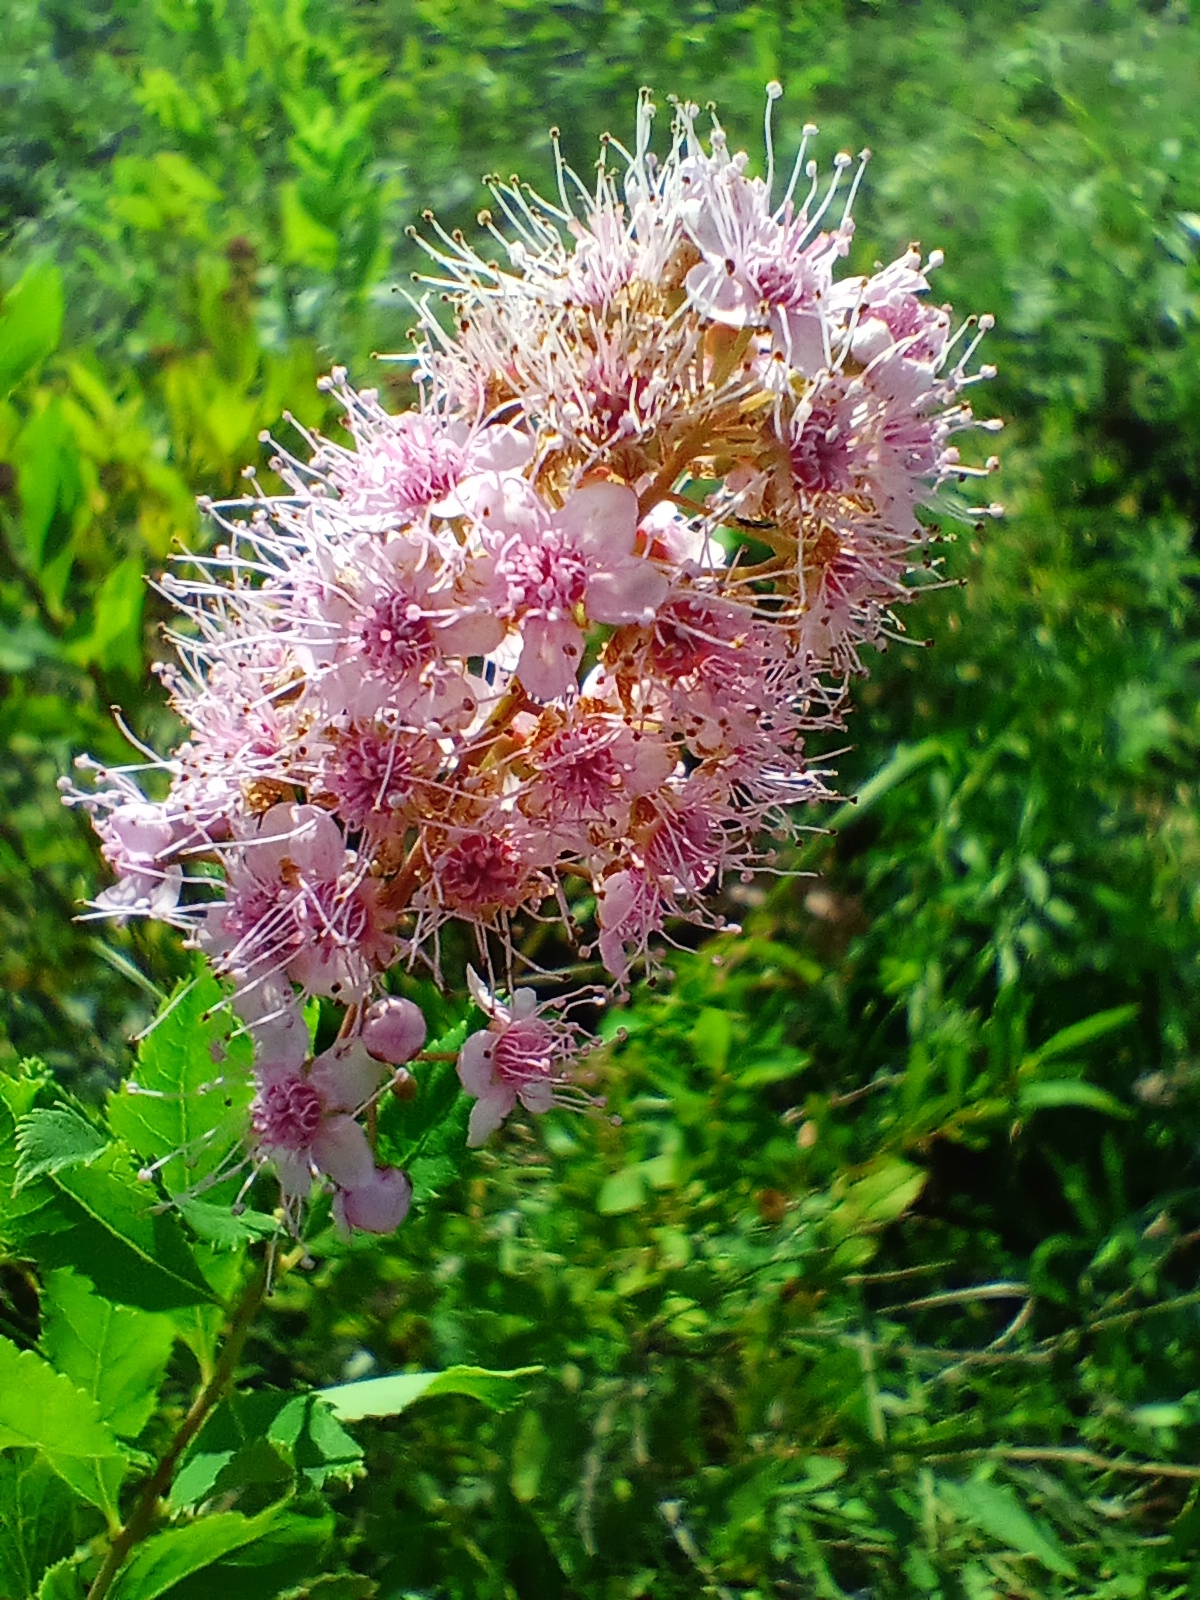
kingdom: Plantae
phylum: Tracheophyta
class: Magnoliopsida
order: Rosales
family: Rosaceae
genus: Spiraea
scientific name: Spiraea salicifolia
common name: Bridewort
